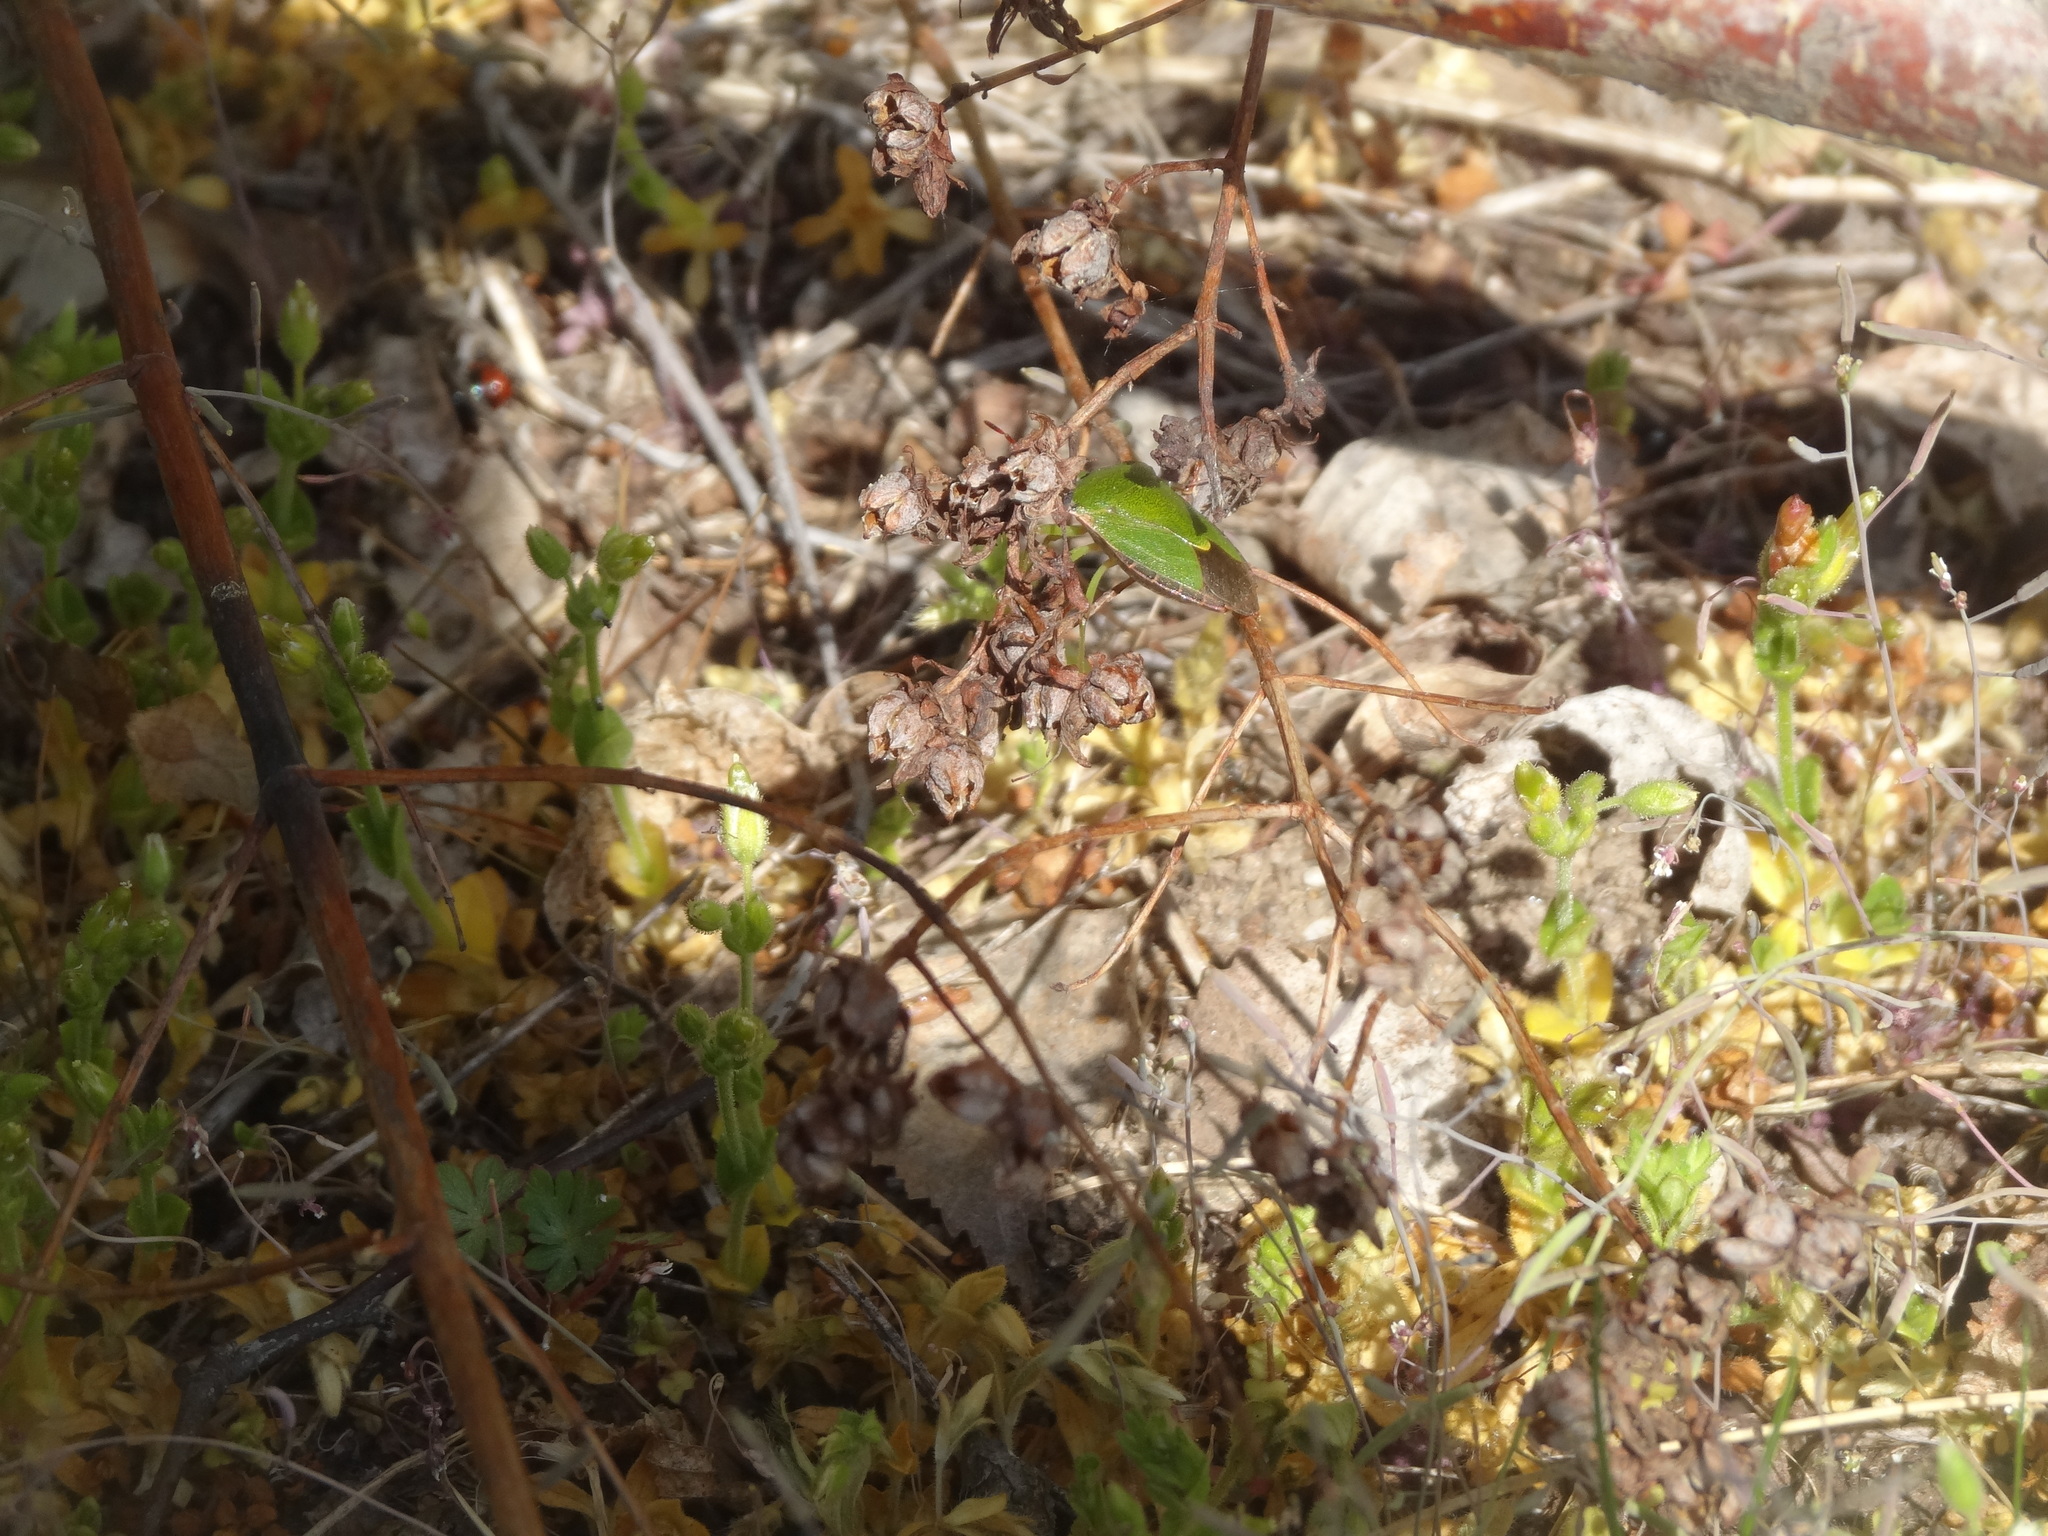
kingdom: Animalia
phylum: Arthropoda
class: Insecta
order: Hemiptera
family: Pentatomidae
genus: Palomena
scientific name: Palomena prasina
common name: Green shieldbug
